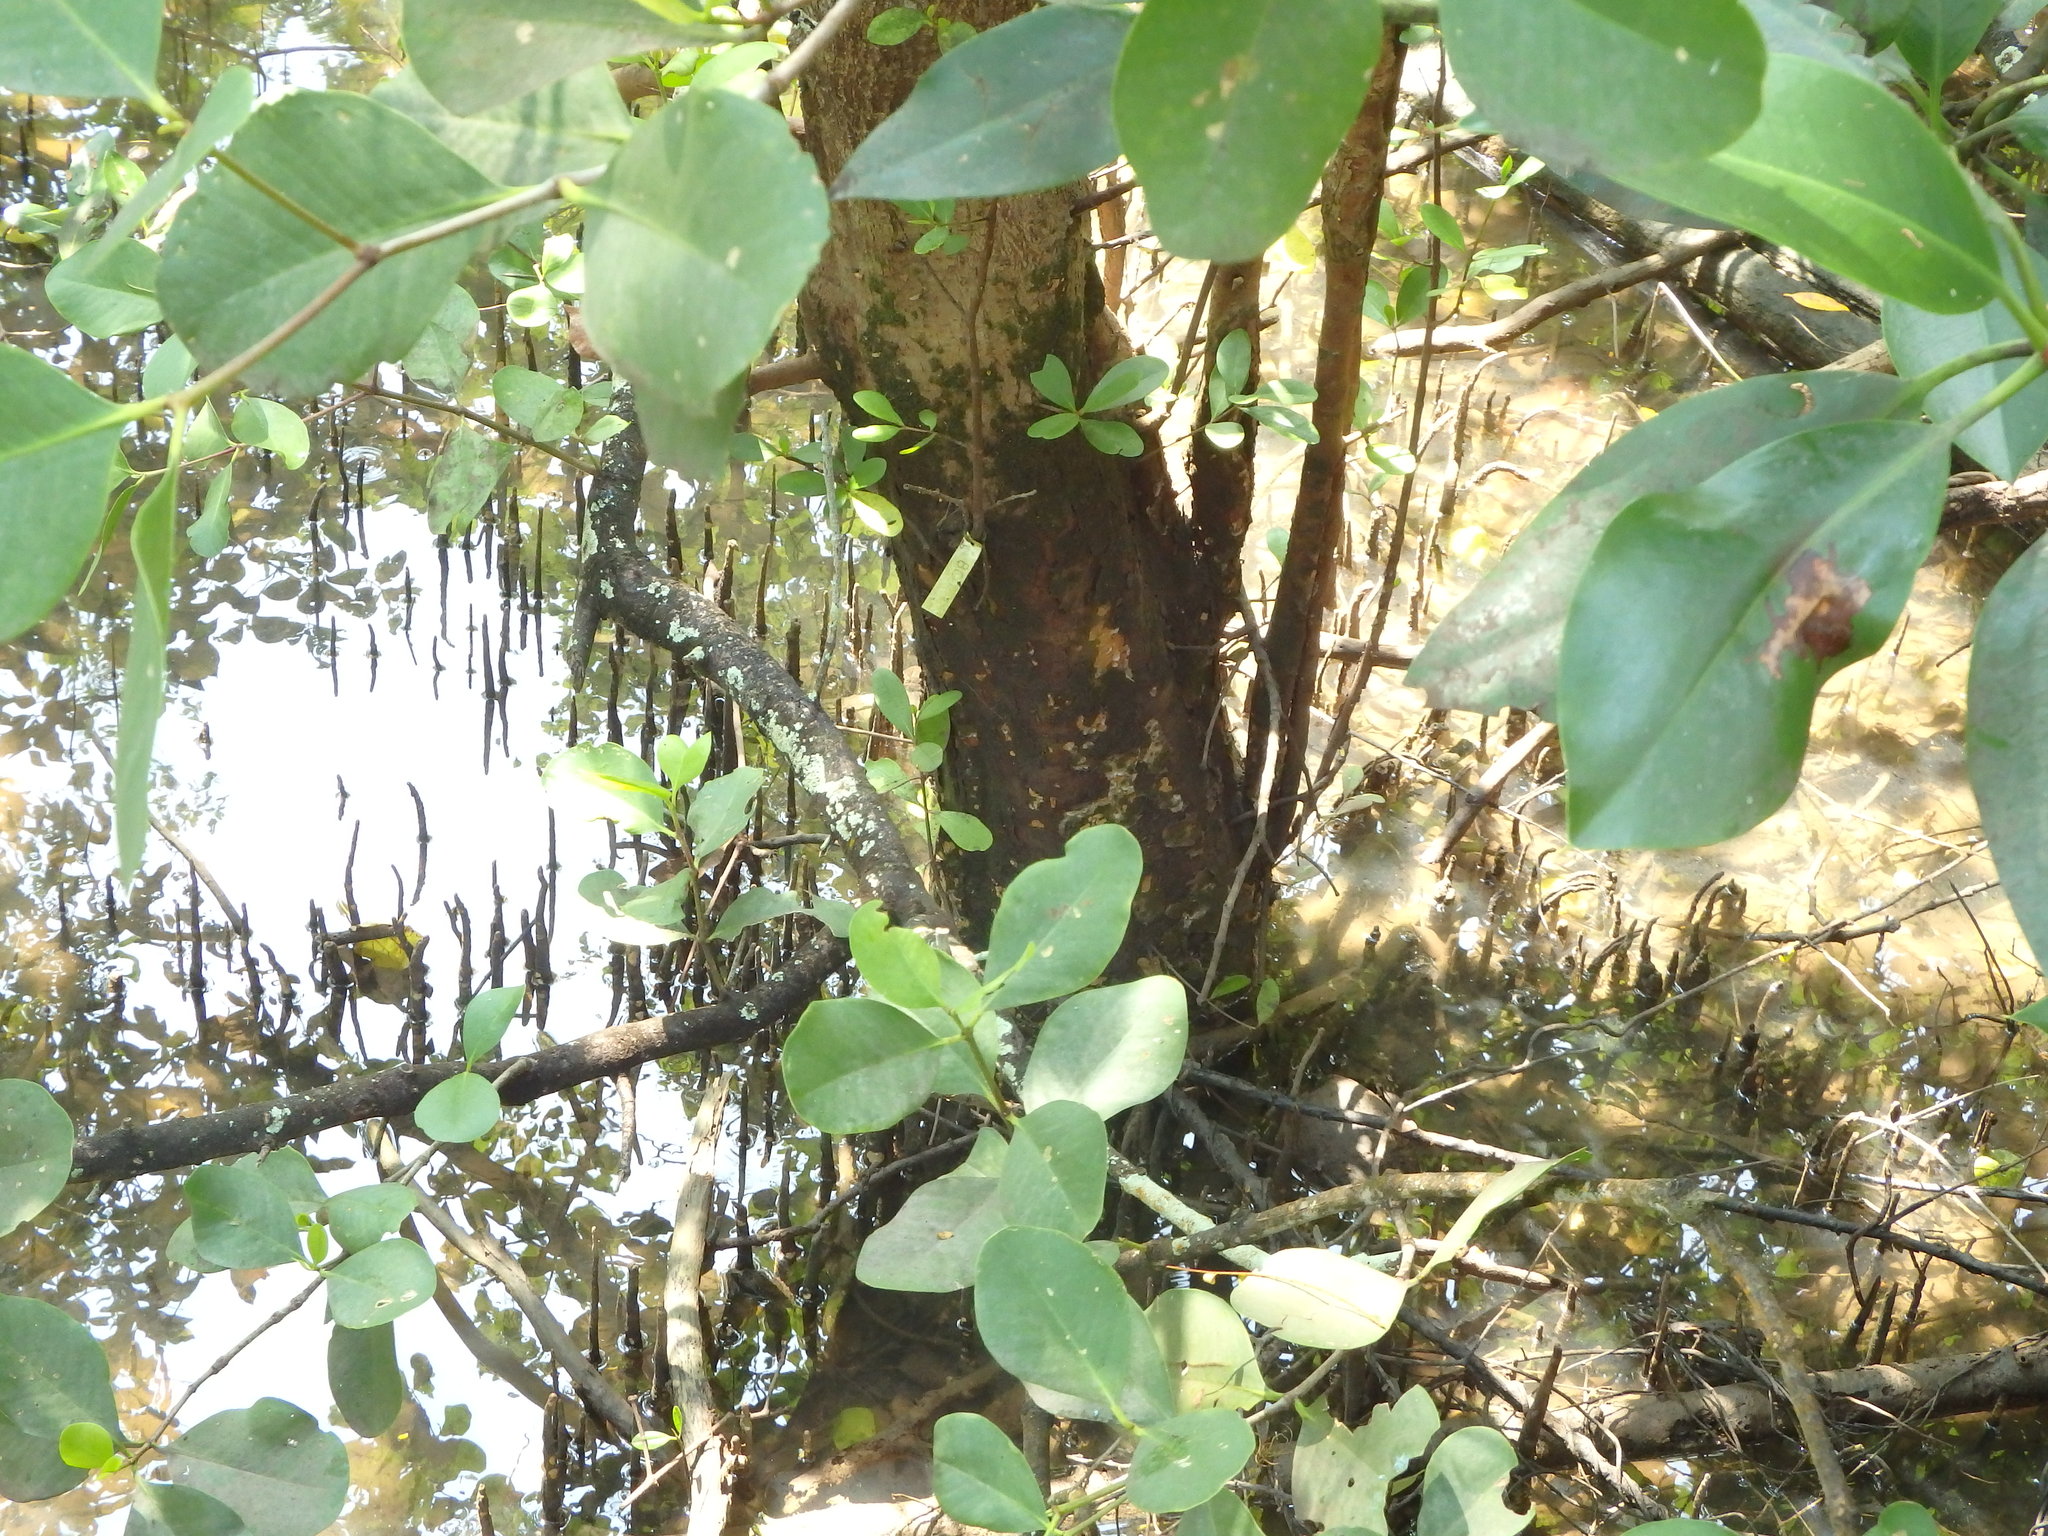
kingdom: Plantae
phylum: Tracheophyta
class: Magnoliopsida
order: Myrtales
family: Lythraceae
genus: Sonneratia
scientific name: Sonneratia alba
